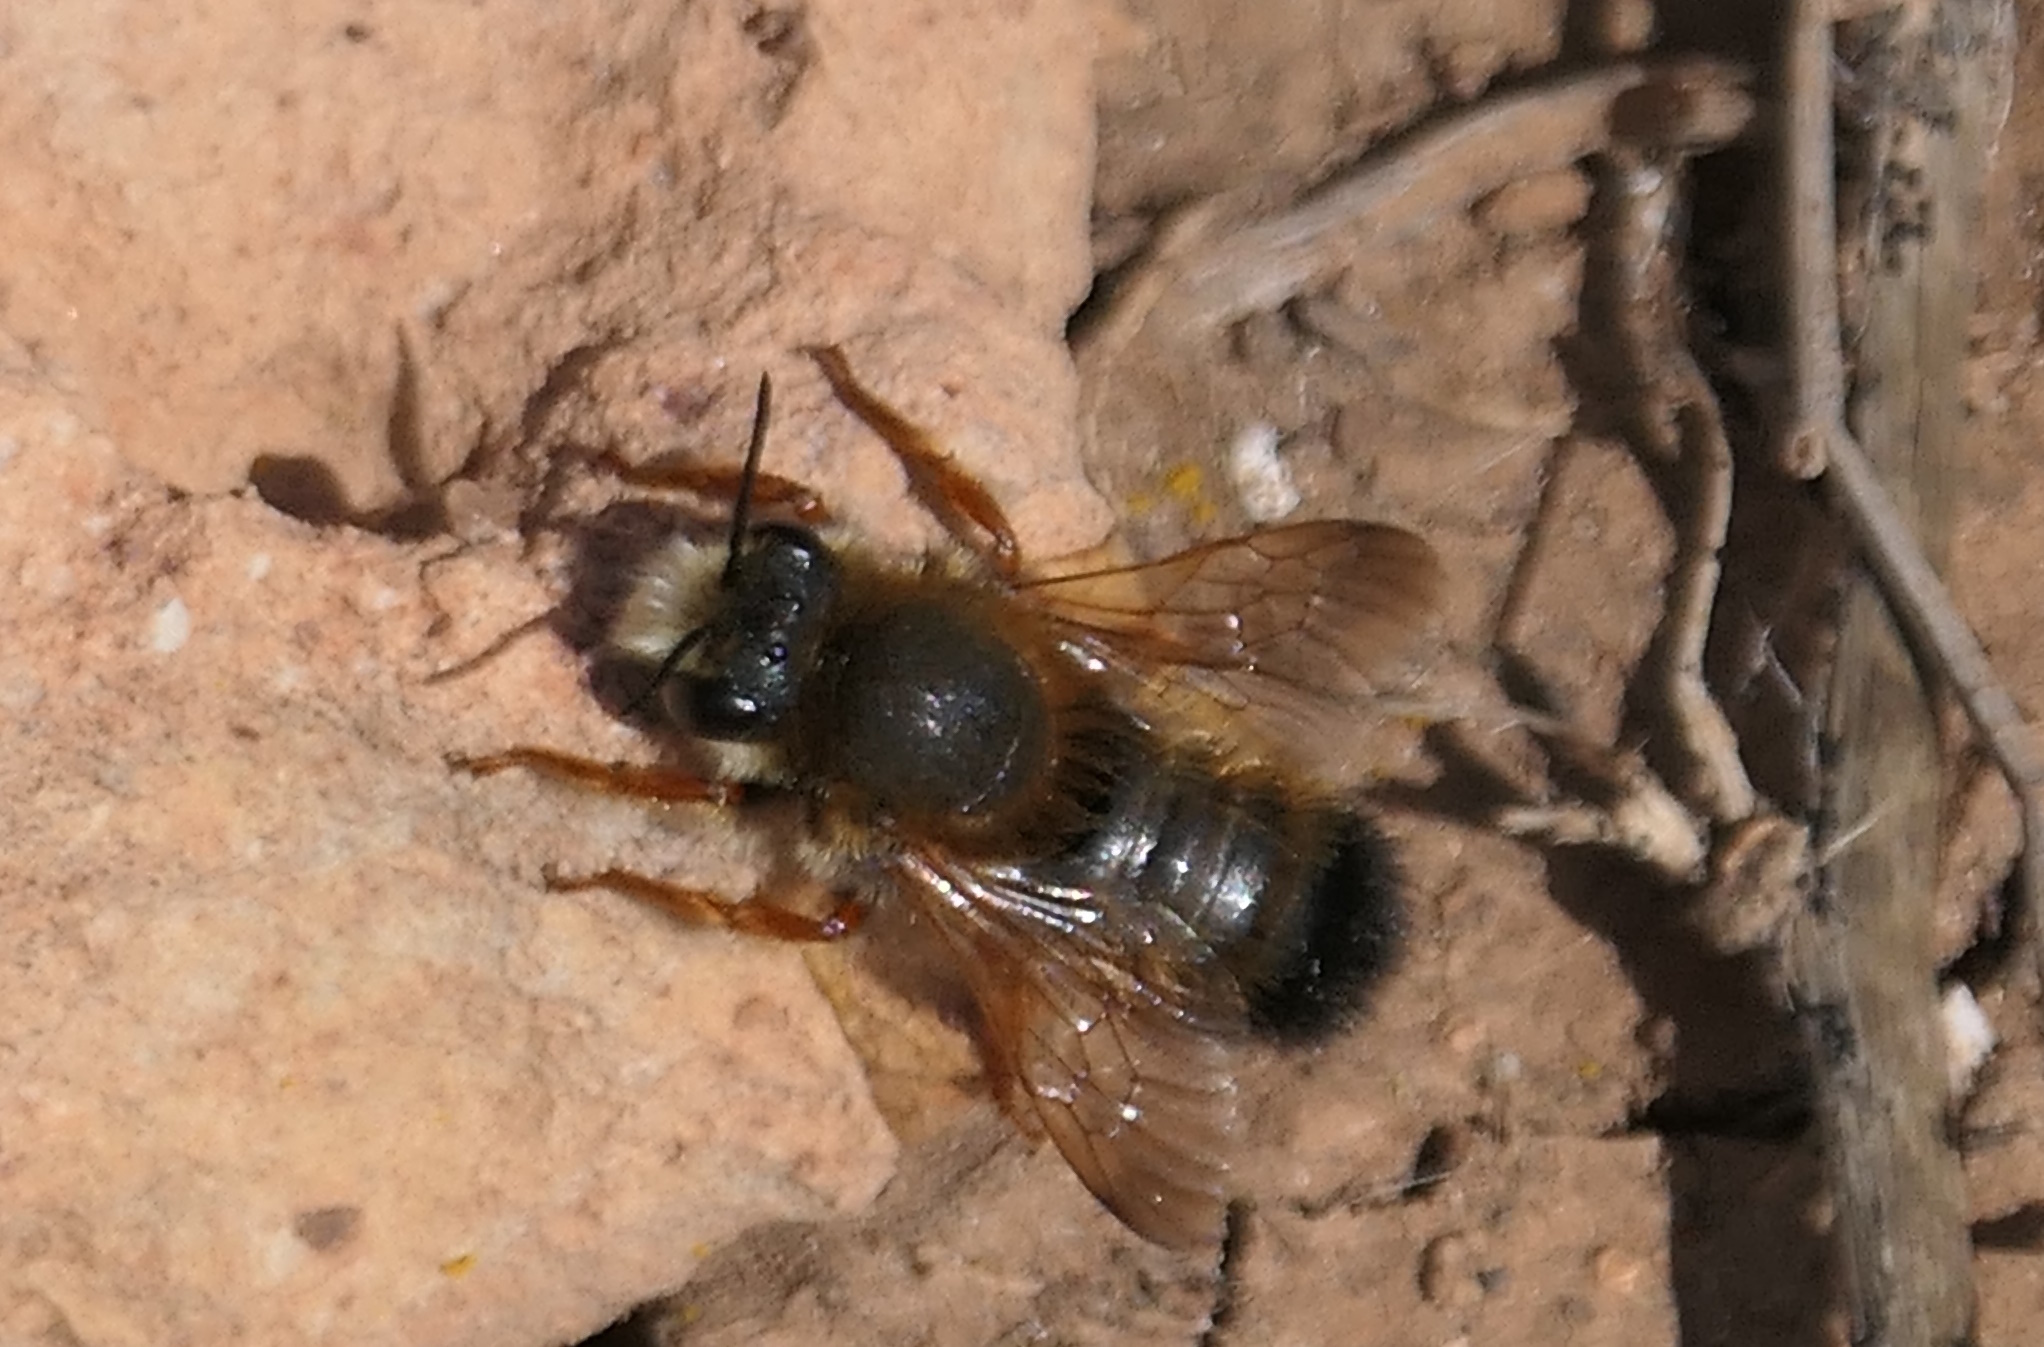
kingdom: Animalia
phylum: Arthropoda
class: Insecta
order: Hymenoptera
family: Megachilidae
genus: Megachile
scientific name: Megachile sicula
